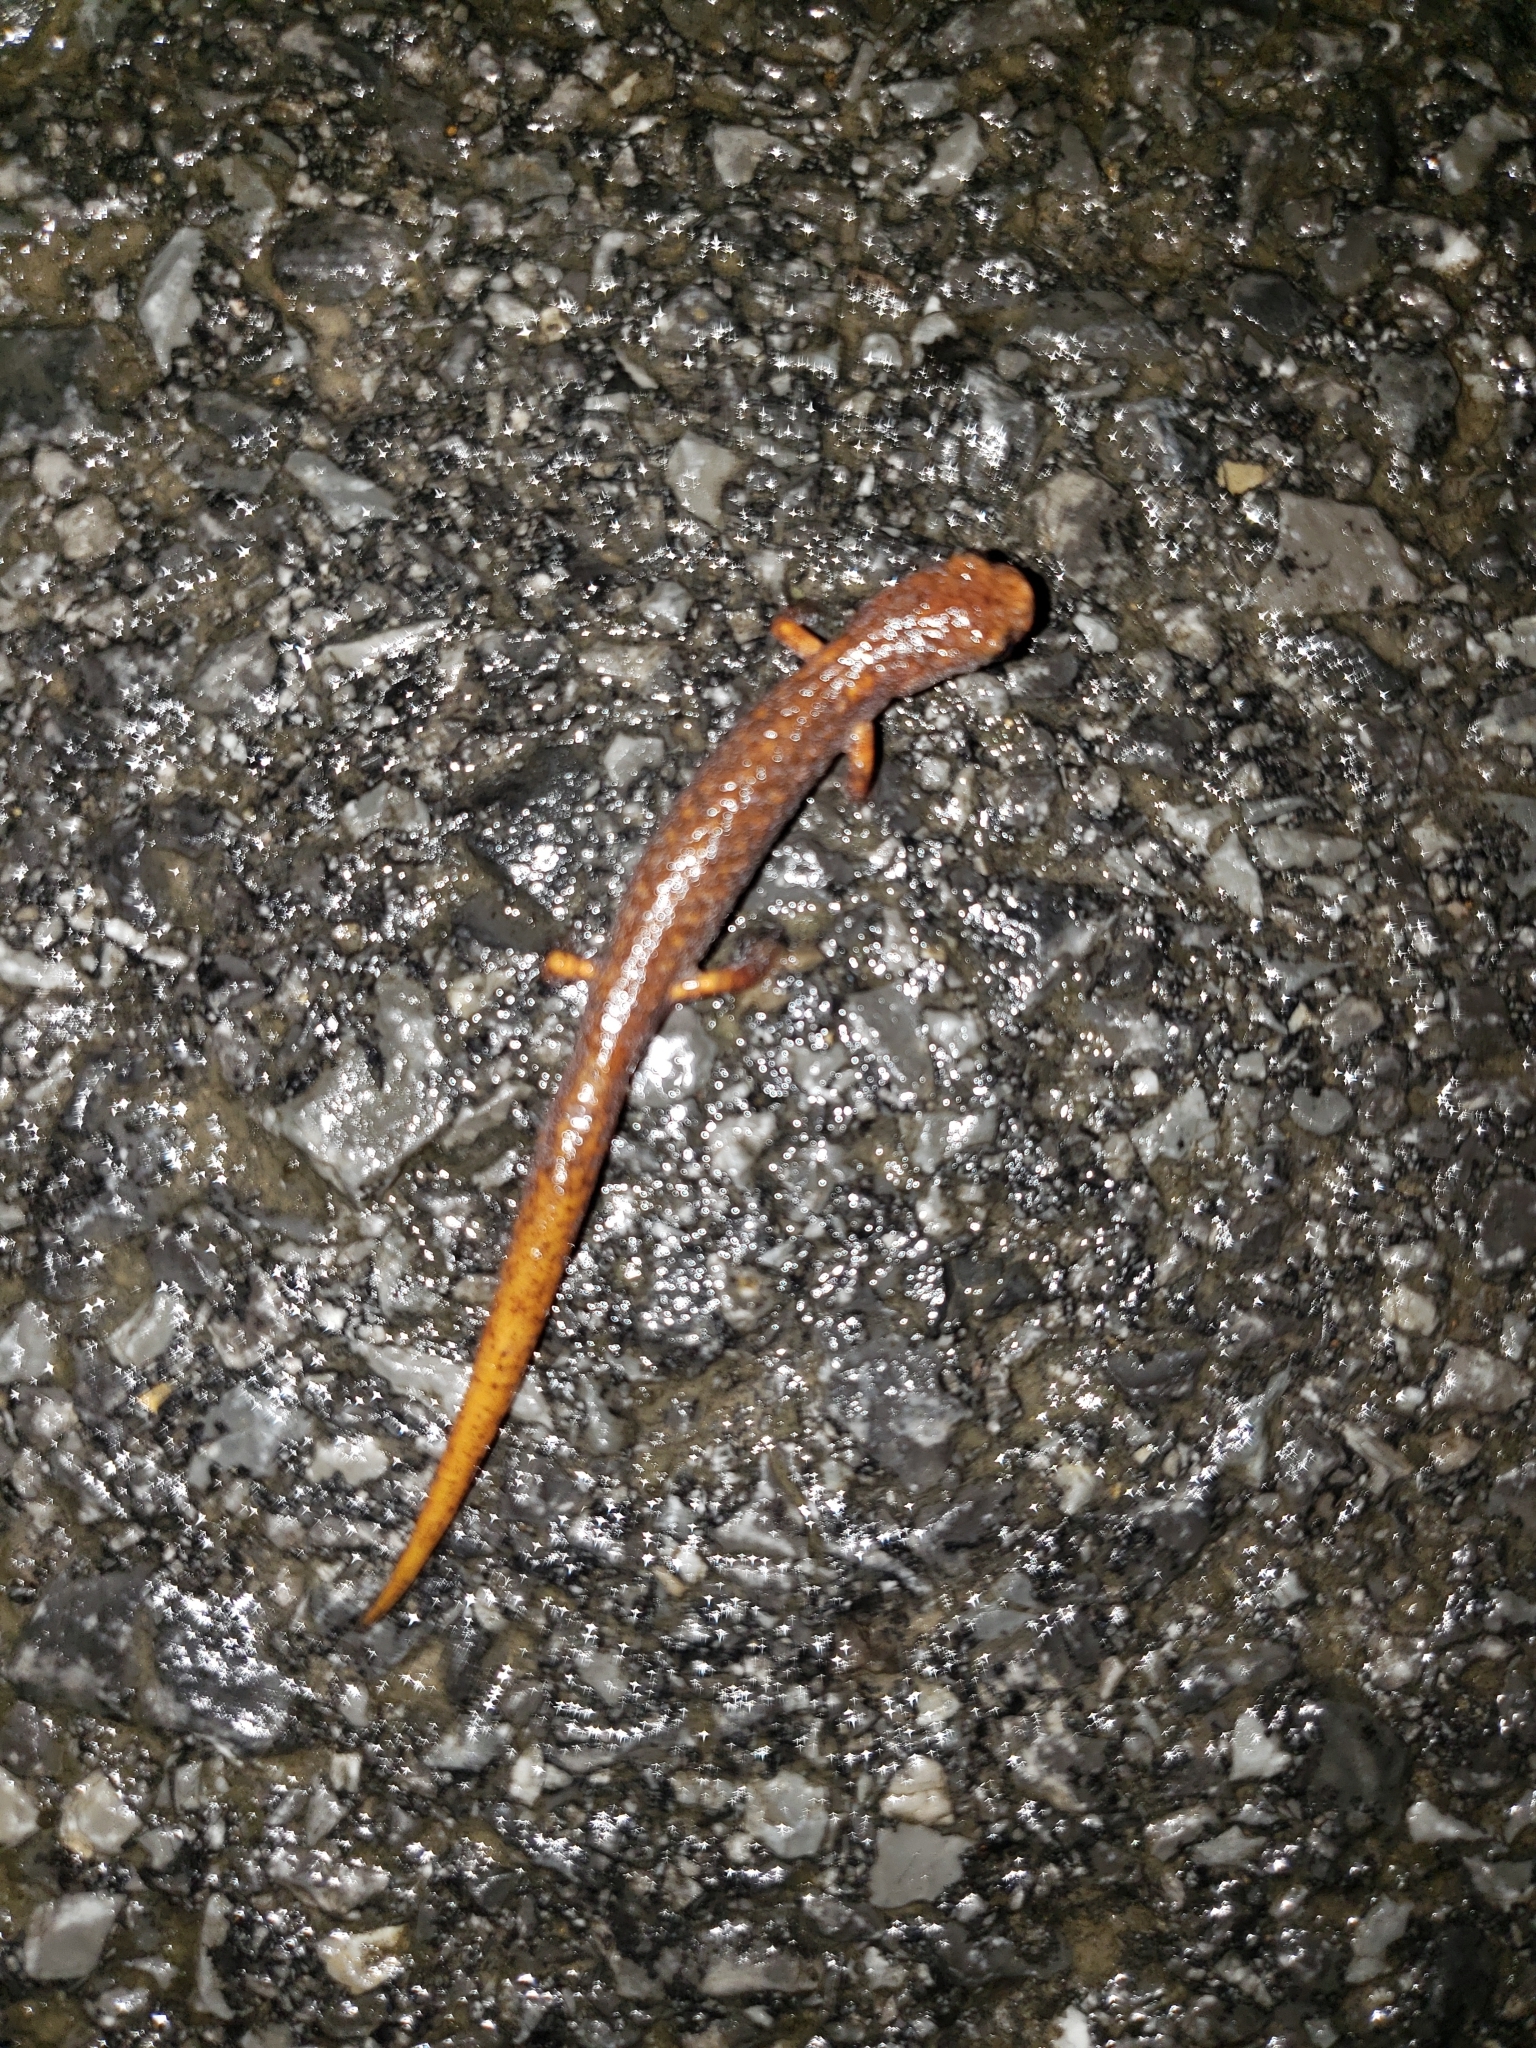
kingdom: Animalia
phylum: Chordata
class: Amphibia
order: Caudata
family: Plethodontidae
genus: Hemidactylium
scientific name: Hemidactylium scutatum
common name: Four-toed salamander
